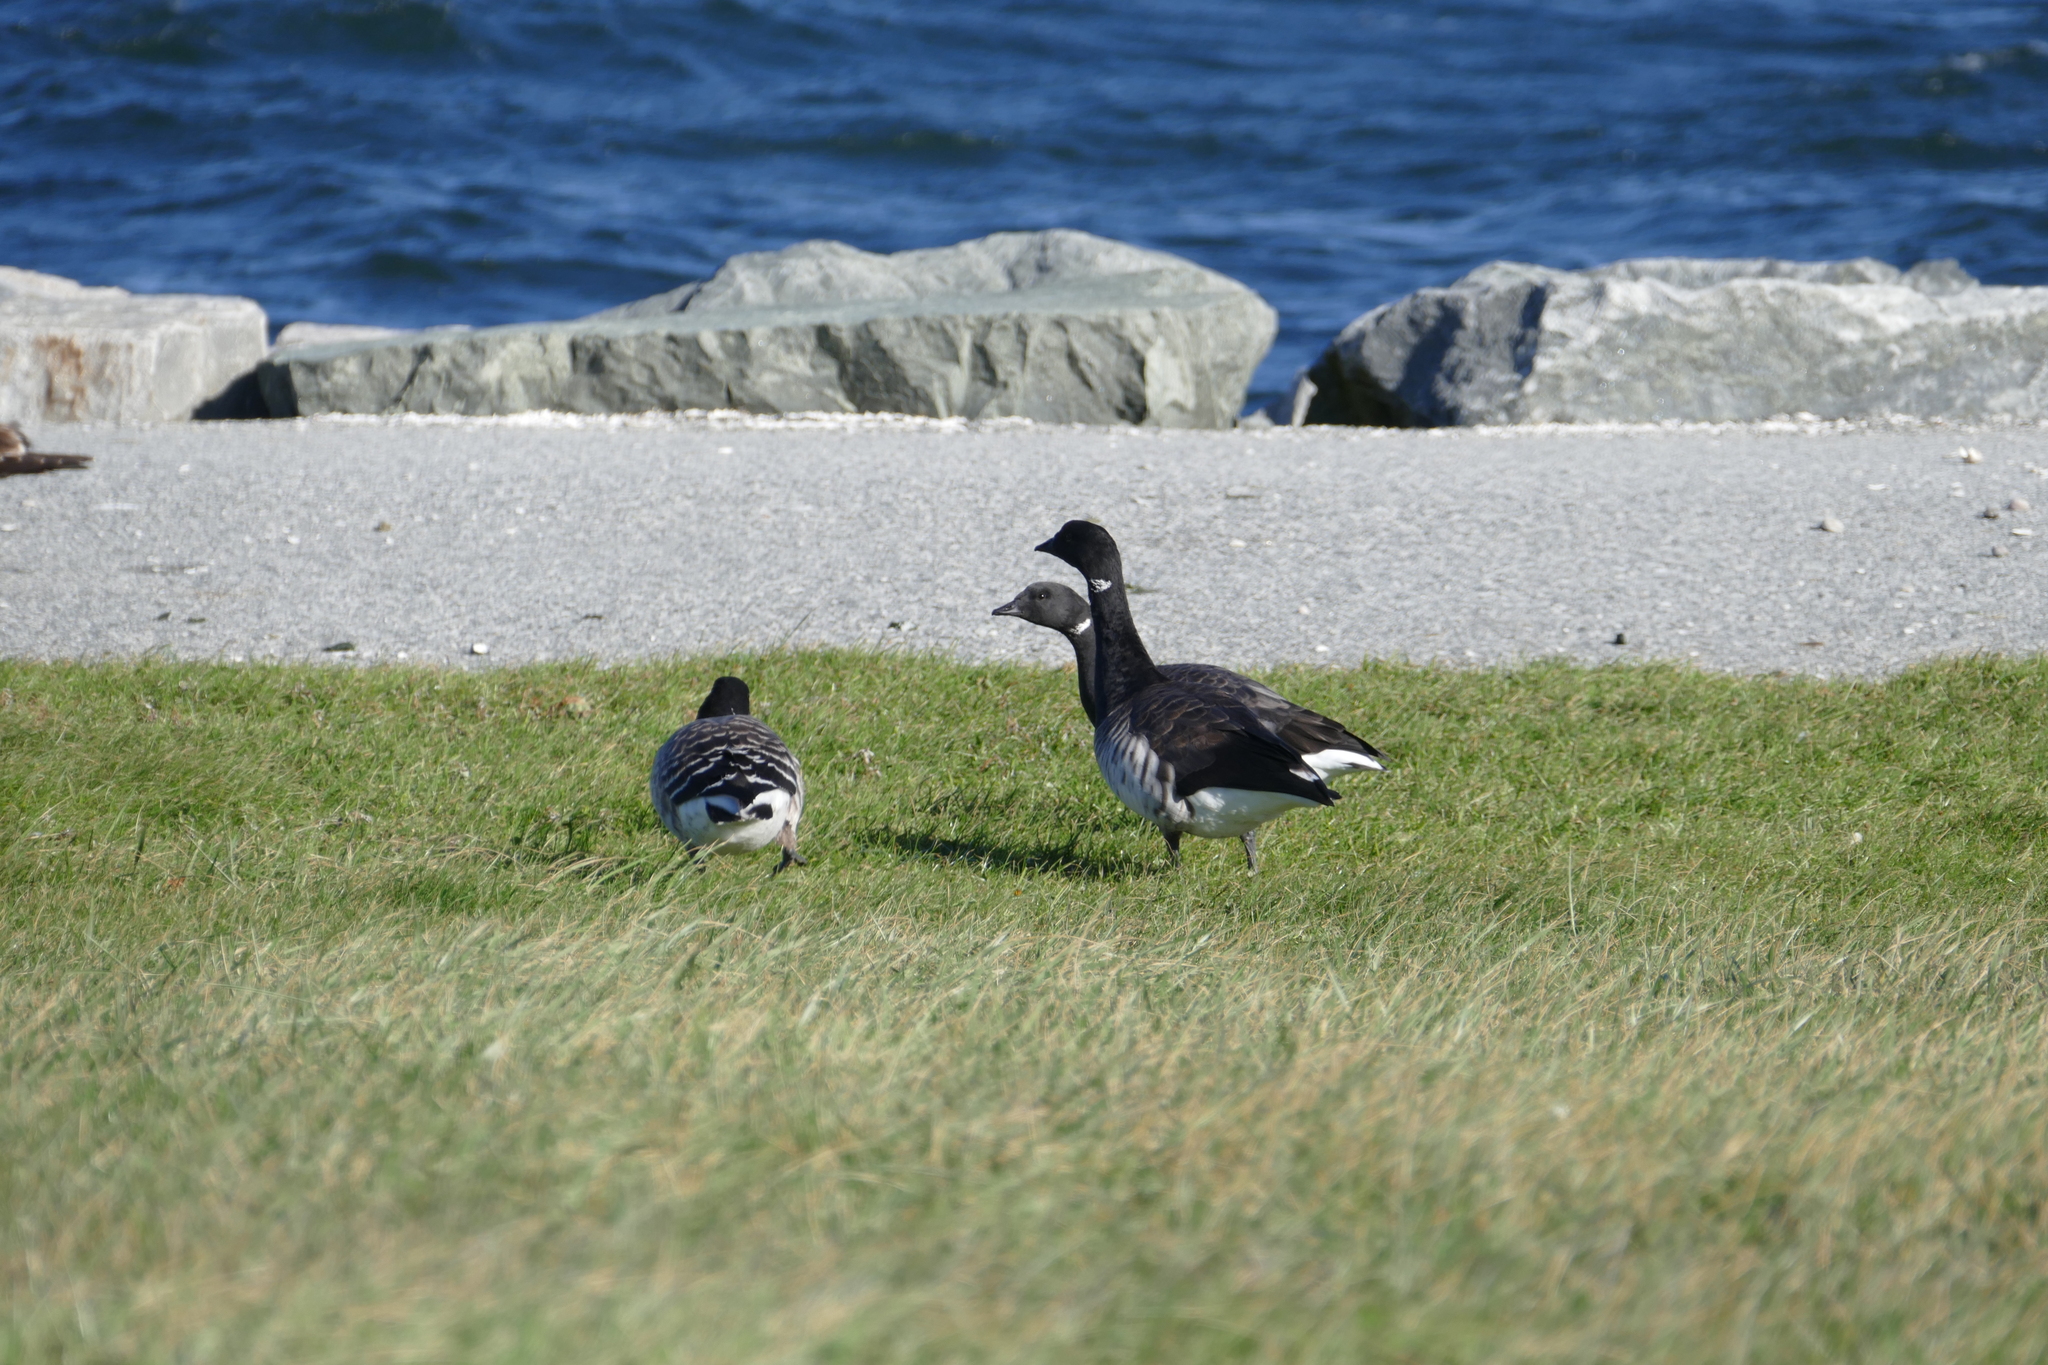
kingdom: Animalia
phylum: Chordata
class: Aves
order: Anseriformes
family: Anatidae
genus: Branta
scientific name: Branta bernicla
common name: Brant goose
